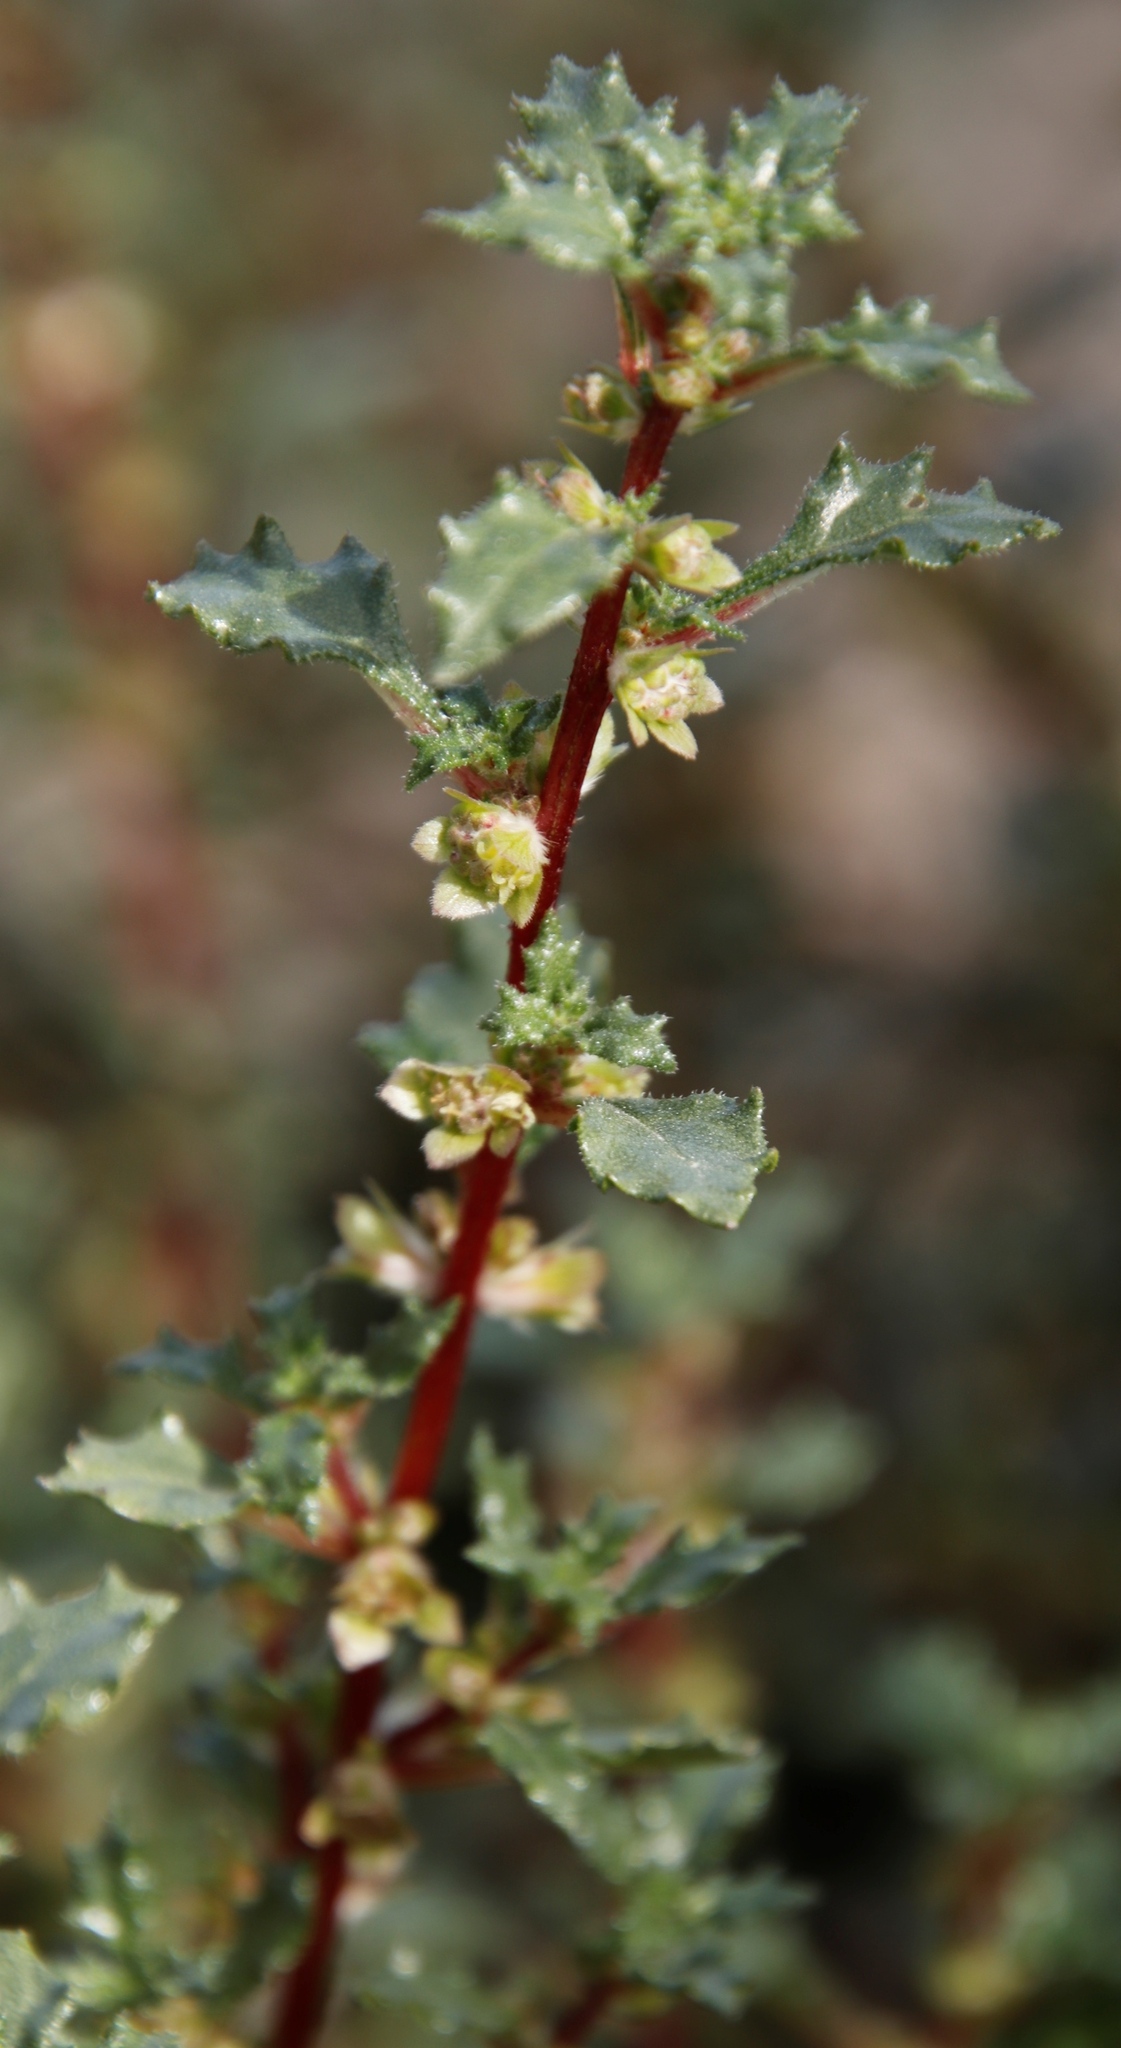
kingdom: Plantae
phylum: Tracheophyta
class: Magnoliopsida
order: Rosales
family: Urticaceae
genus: Forsskaolea
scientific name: Forsskaolea candida
